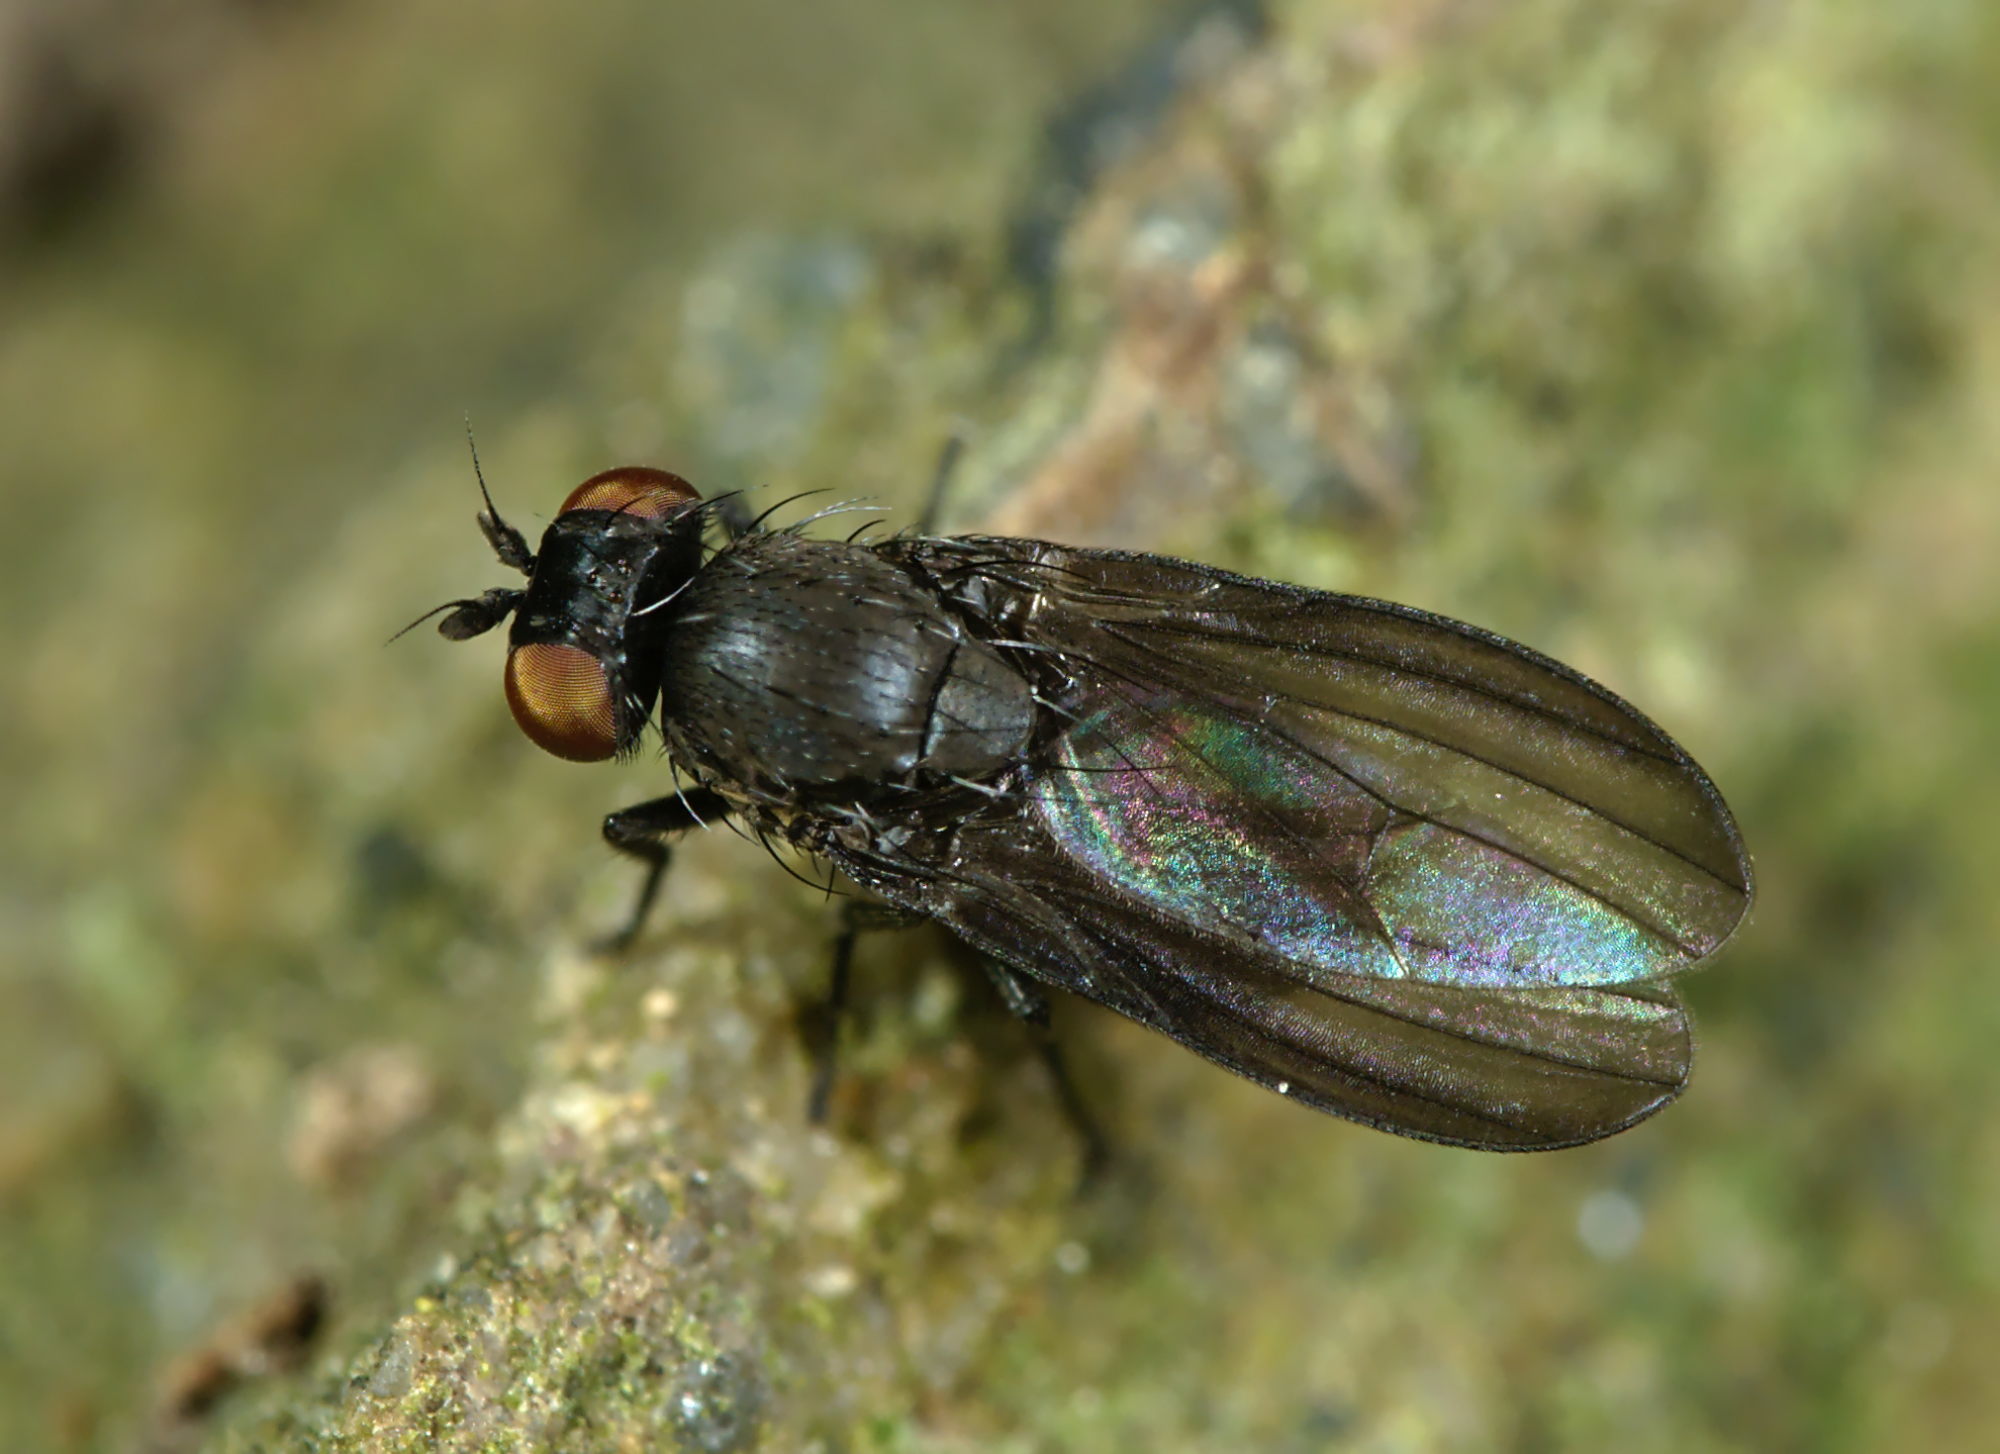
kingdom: Animalia
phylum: Arthropoda
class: Insecta
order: Diptera
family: Lauxaniidae
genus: Cnemacantha
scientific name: Cnemacantha muscaria
